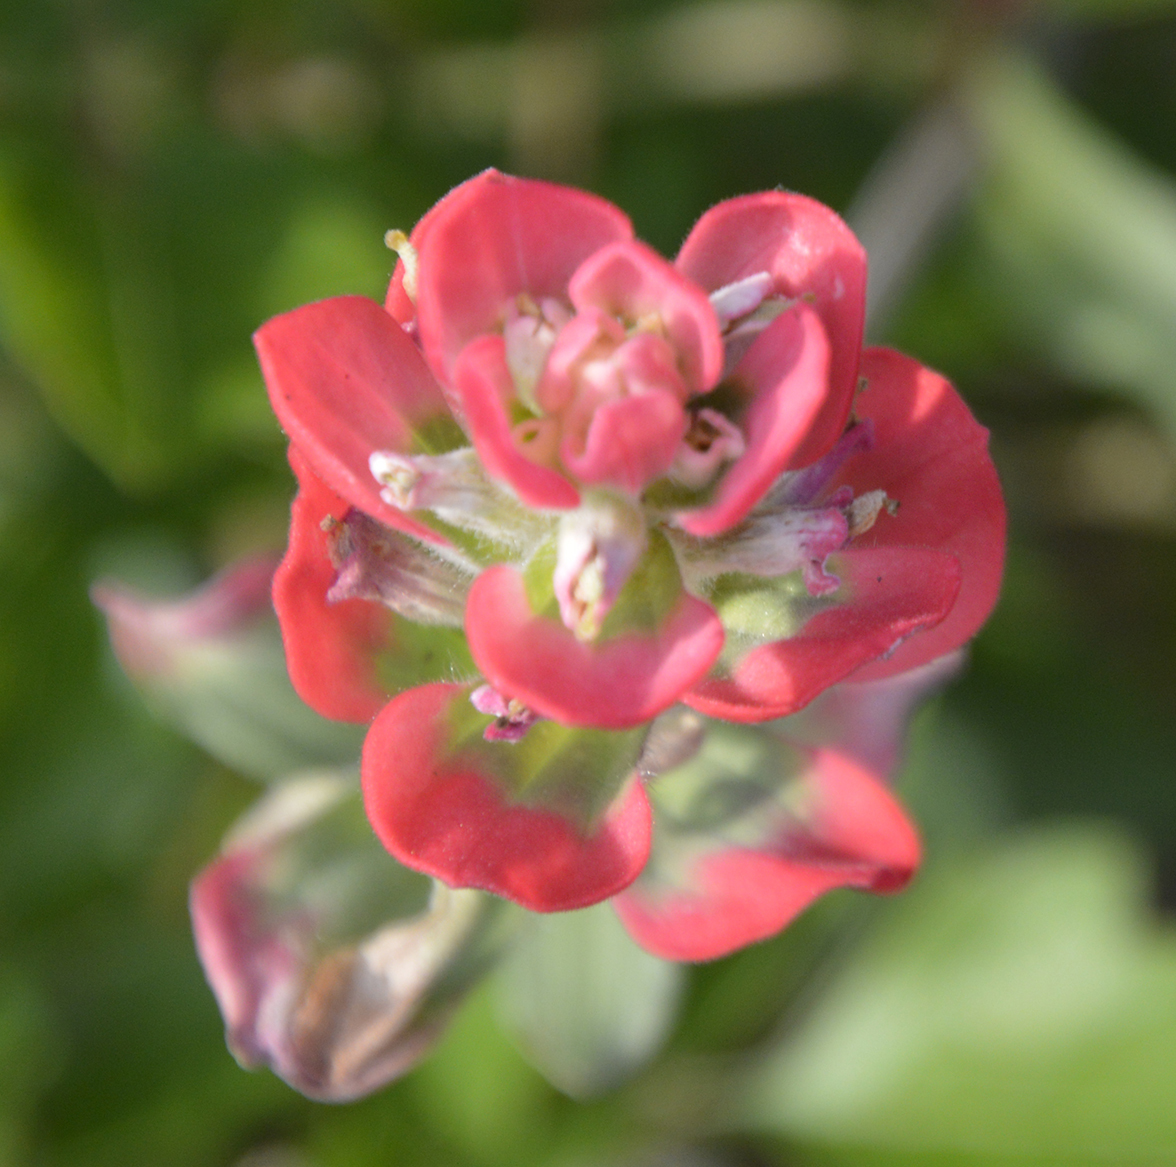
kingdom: Plantae
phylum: Tracheophyta
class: Magnoliopsida
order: Lamiales
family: Orobanchaceae
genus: Castilleja
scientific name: Castilleja indivisa
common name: Texas paintbrush
